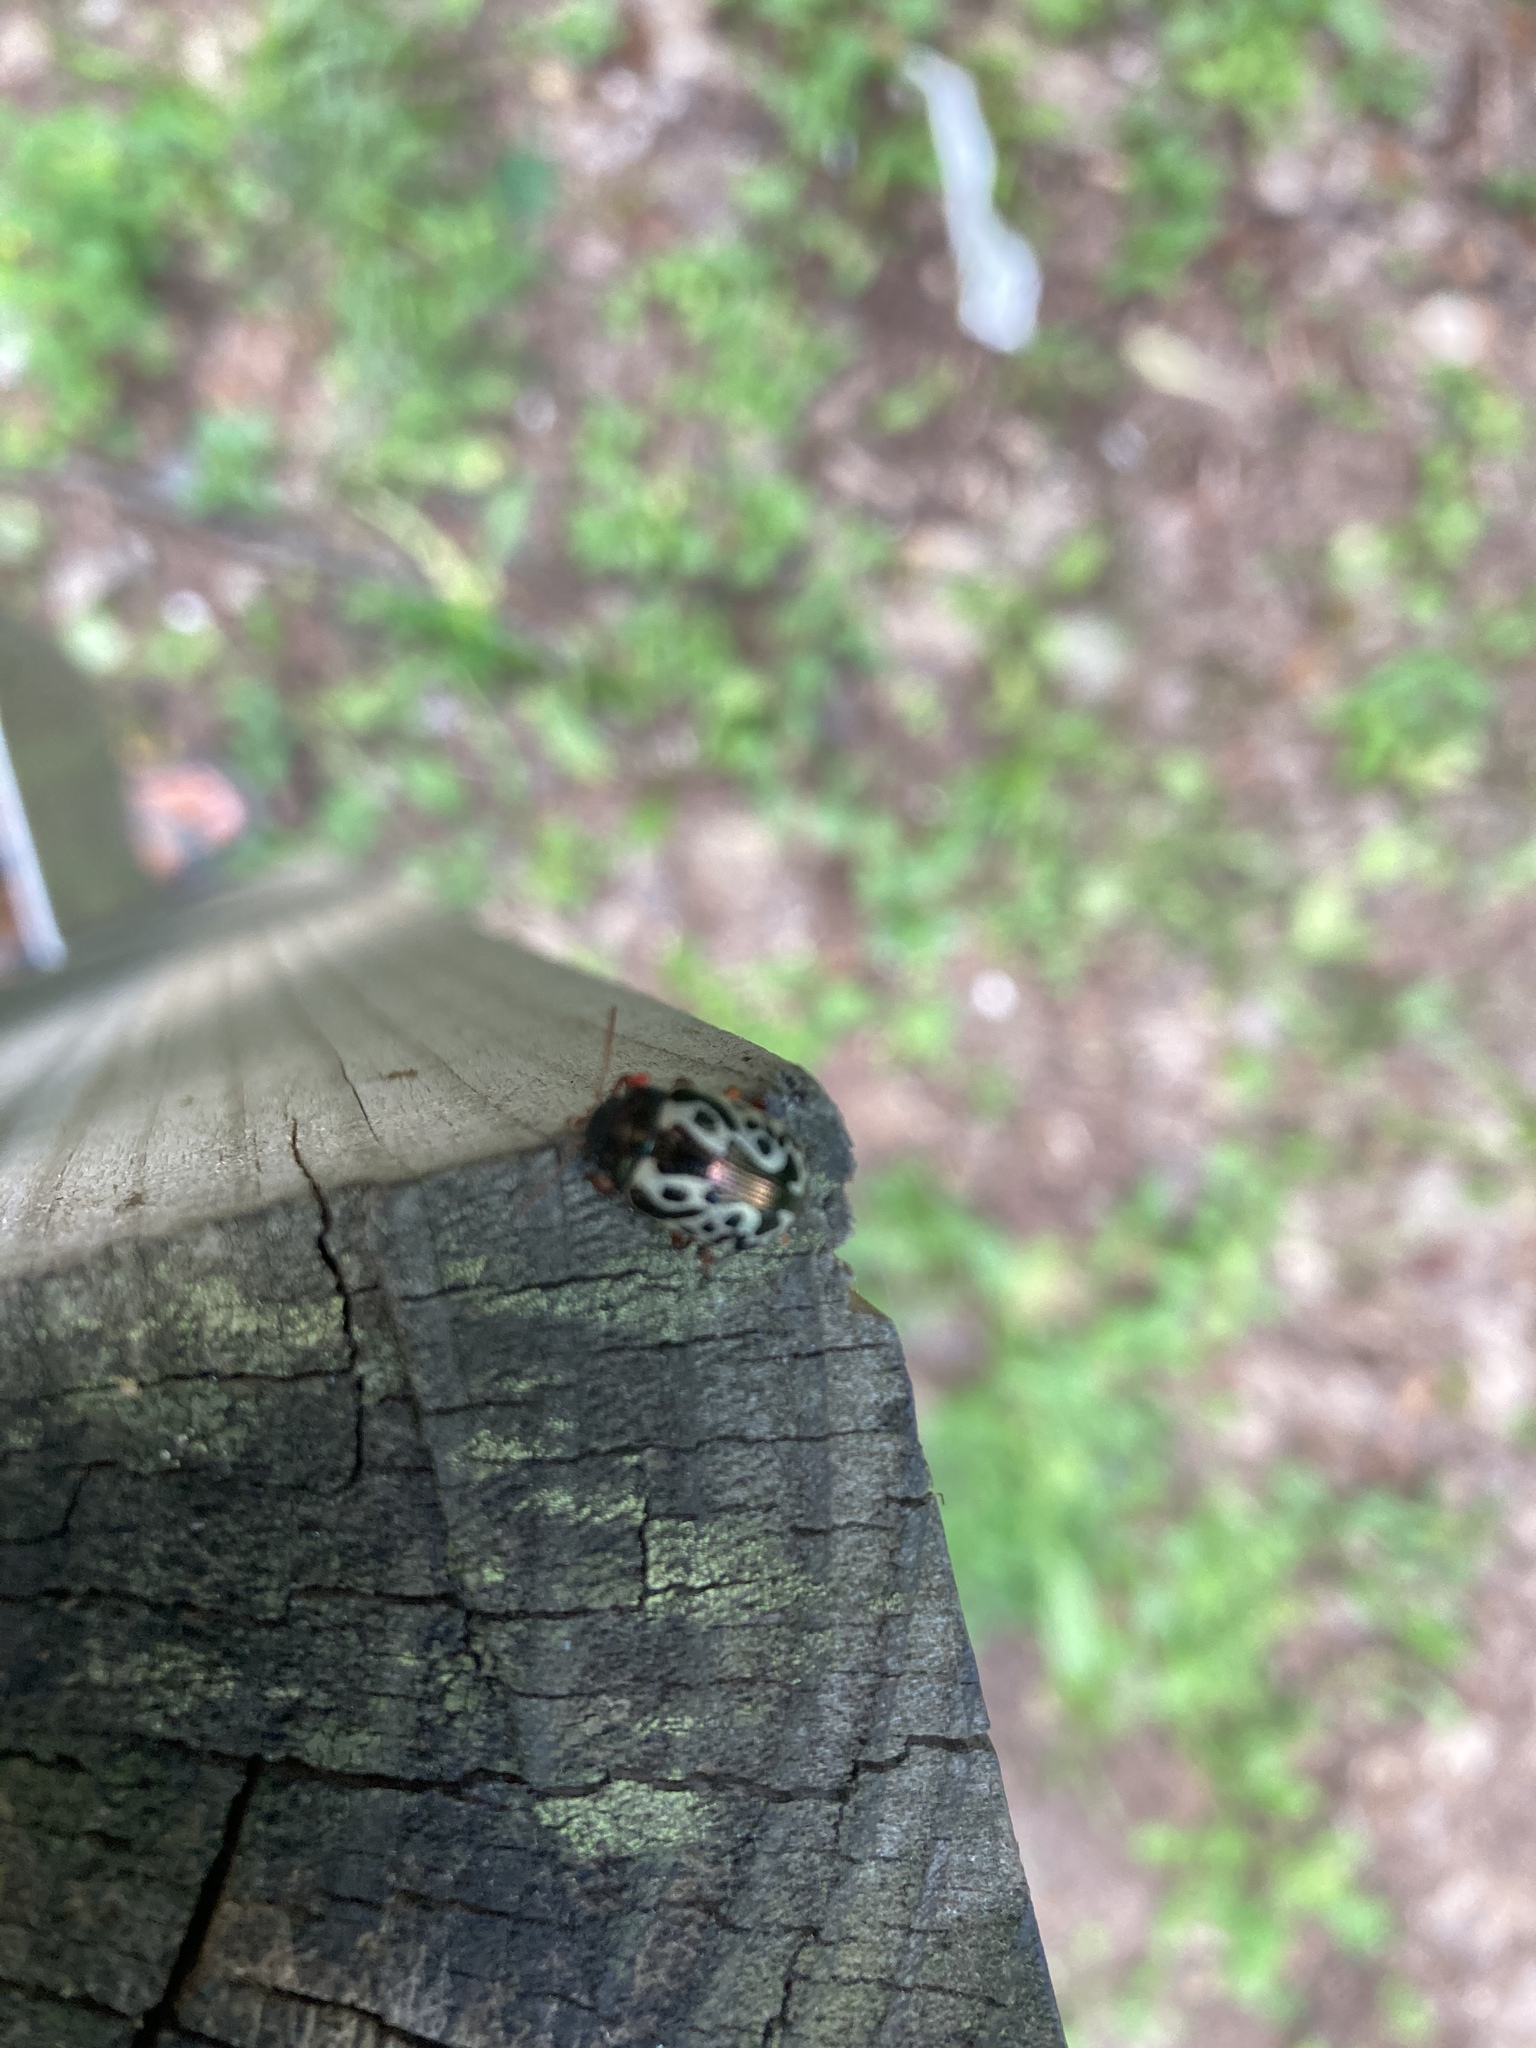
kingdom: Animalia
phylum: Arthropoda
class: Insecta
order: Coleoptera
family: Chrysomelidae
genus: Calligrapha
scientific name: Calligrapha confluens
